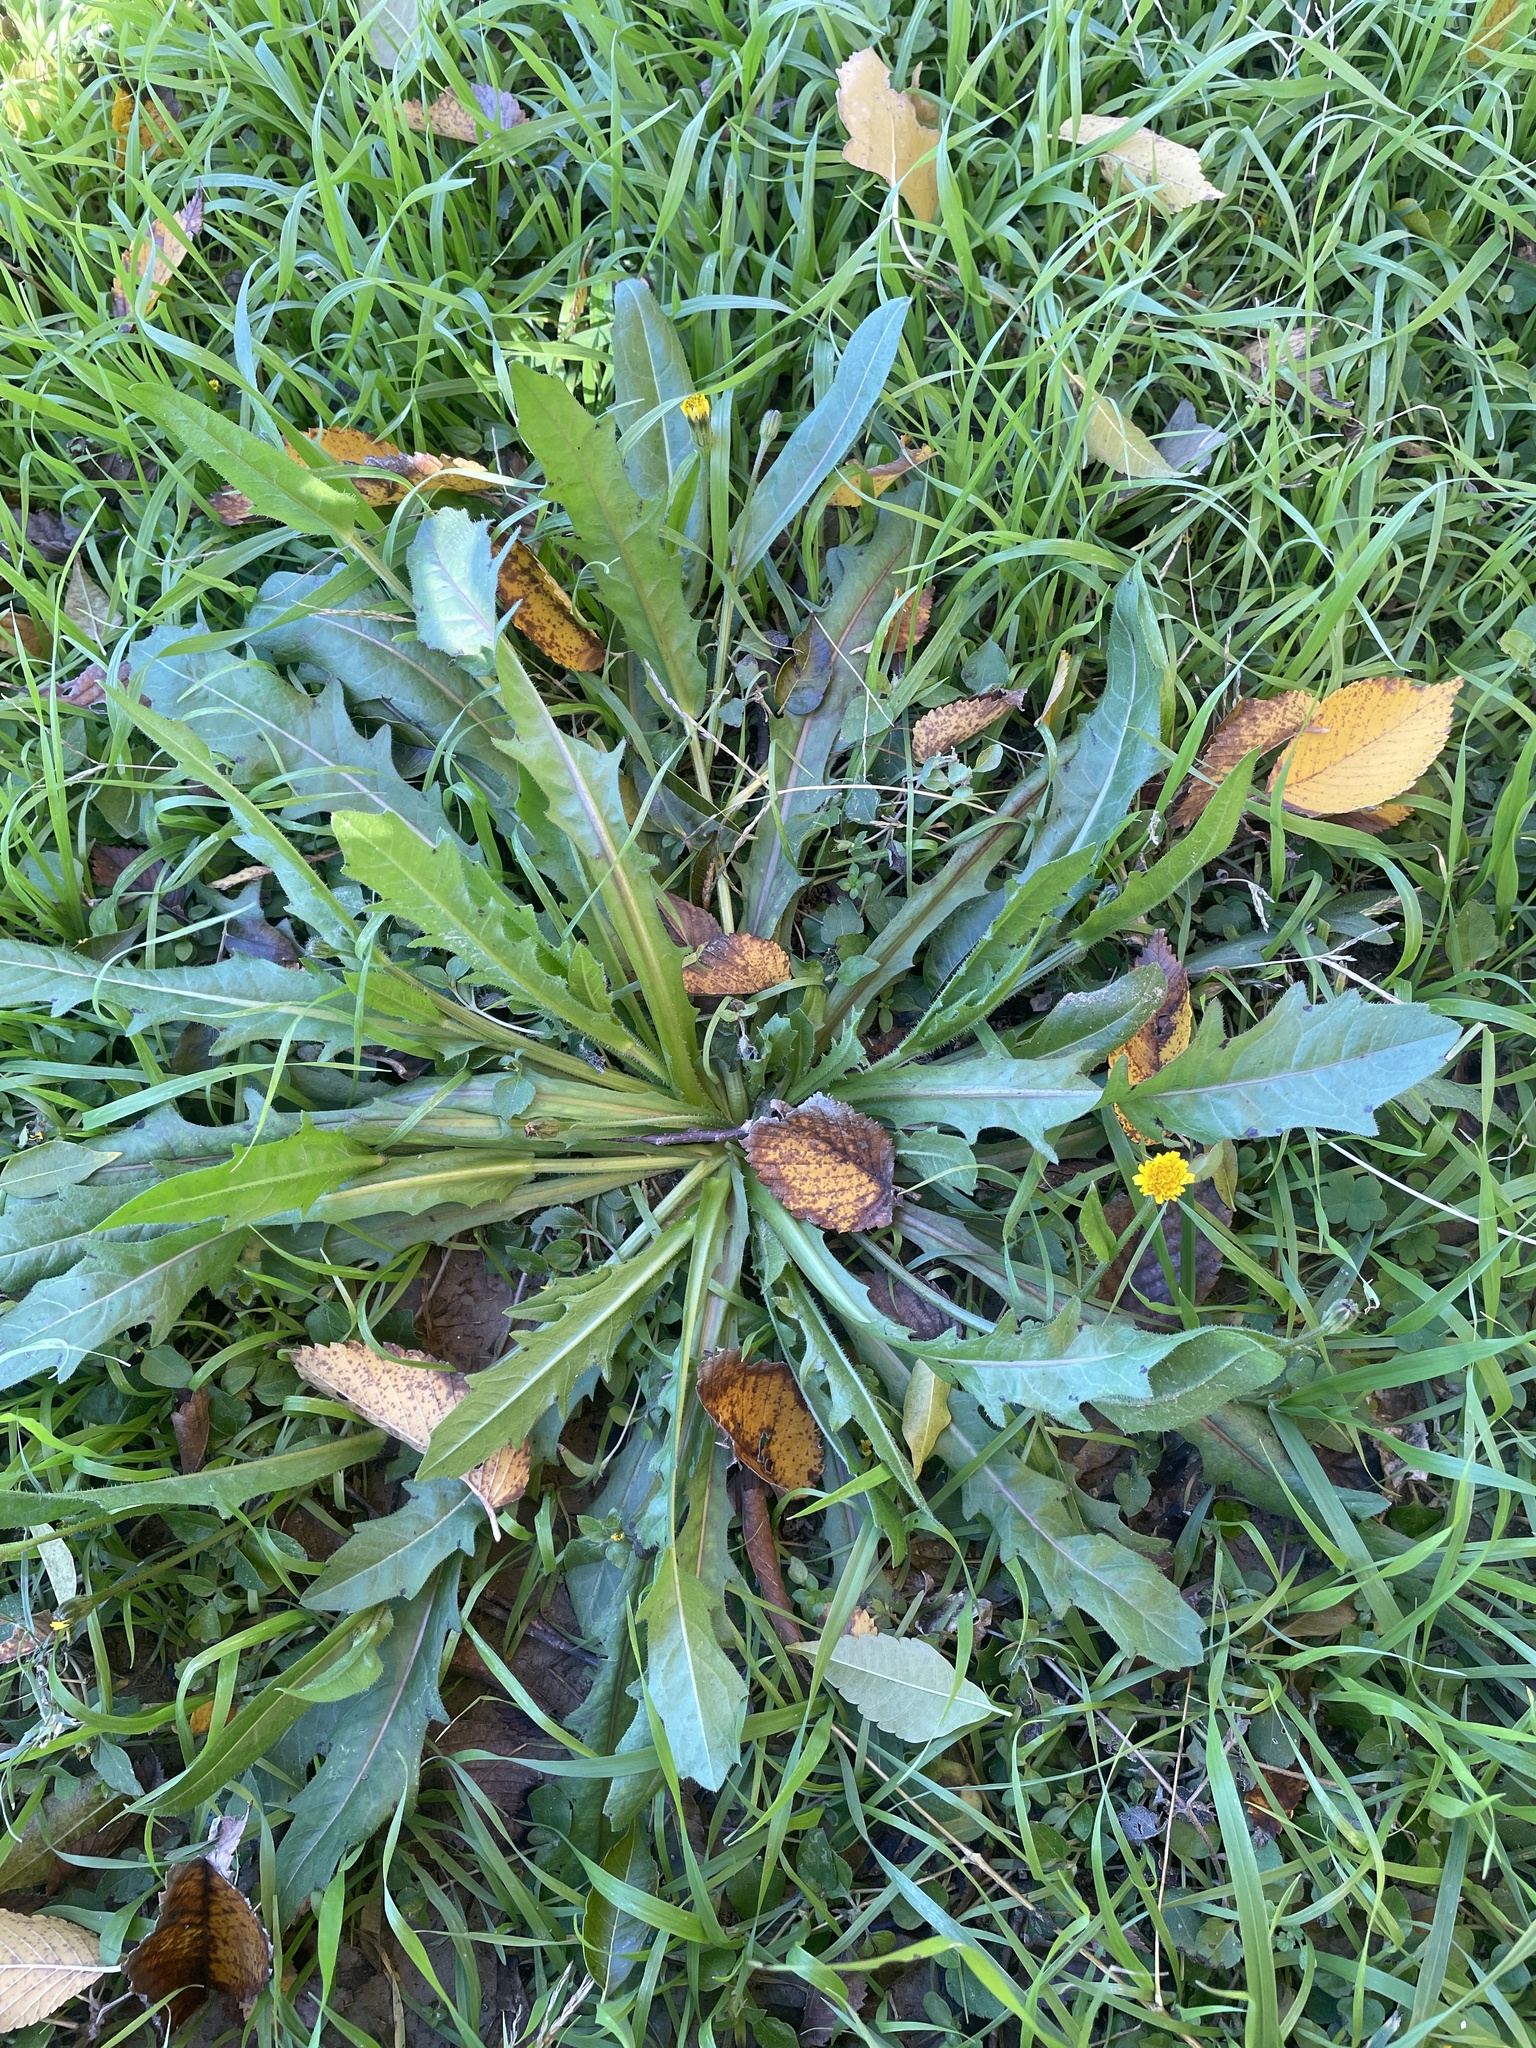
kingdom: Plantae
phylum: Tracheophyta
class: Magnoliopsida
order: Asterales
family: Asteraceae
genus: Hedypnois
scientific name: Hedypnois rhagadioloides
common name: Cretan weed
